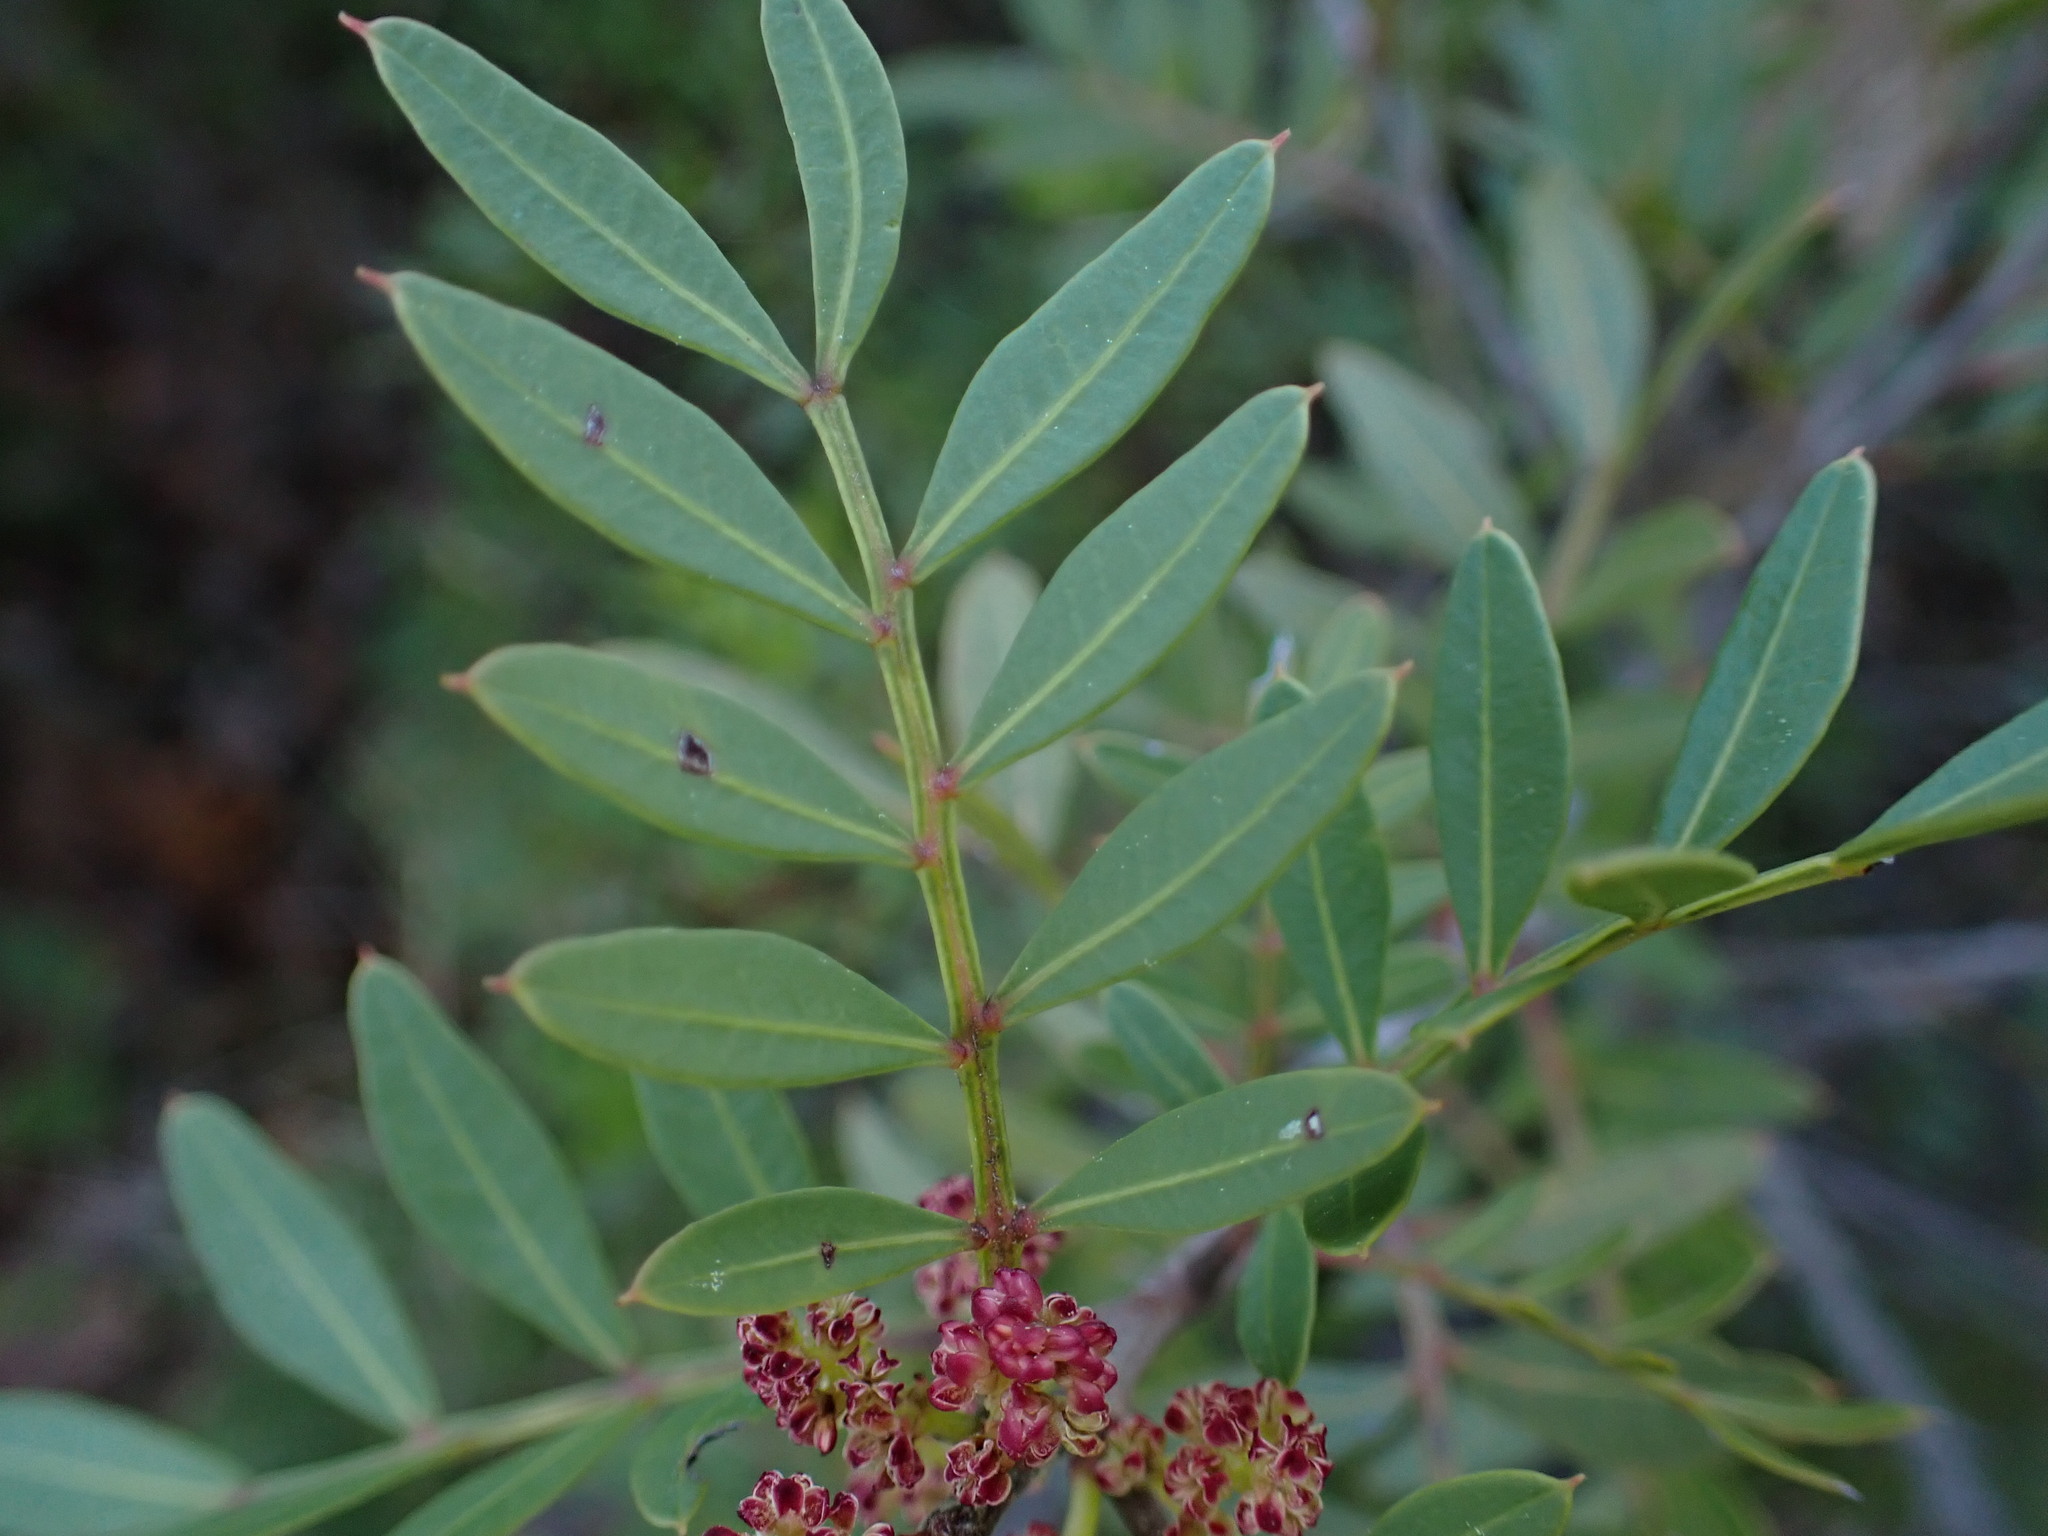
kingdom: Plantae
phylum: Tracheophyta
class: Magnoliopsida
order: Sapindales
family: Anacardiaceae
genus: Pistacia
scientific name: Pistacia lentiscus
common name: Lentisk
